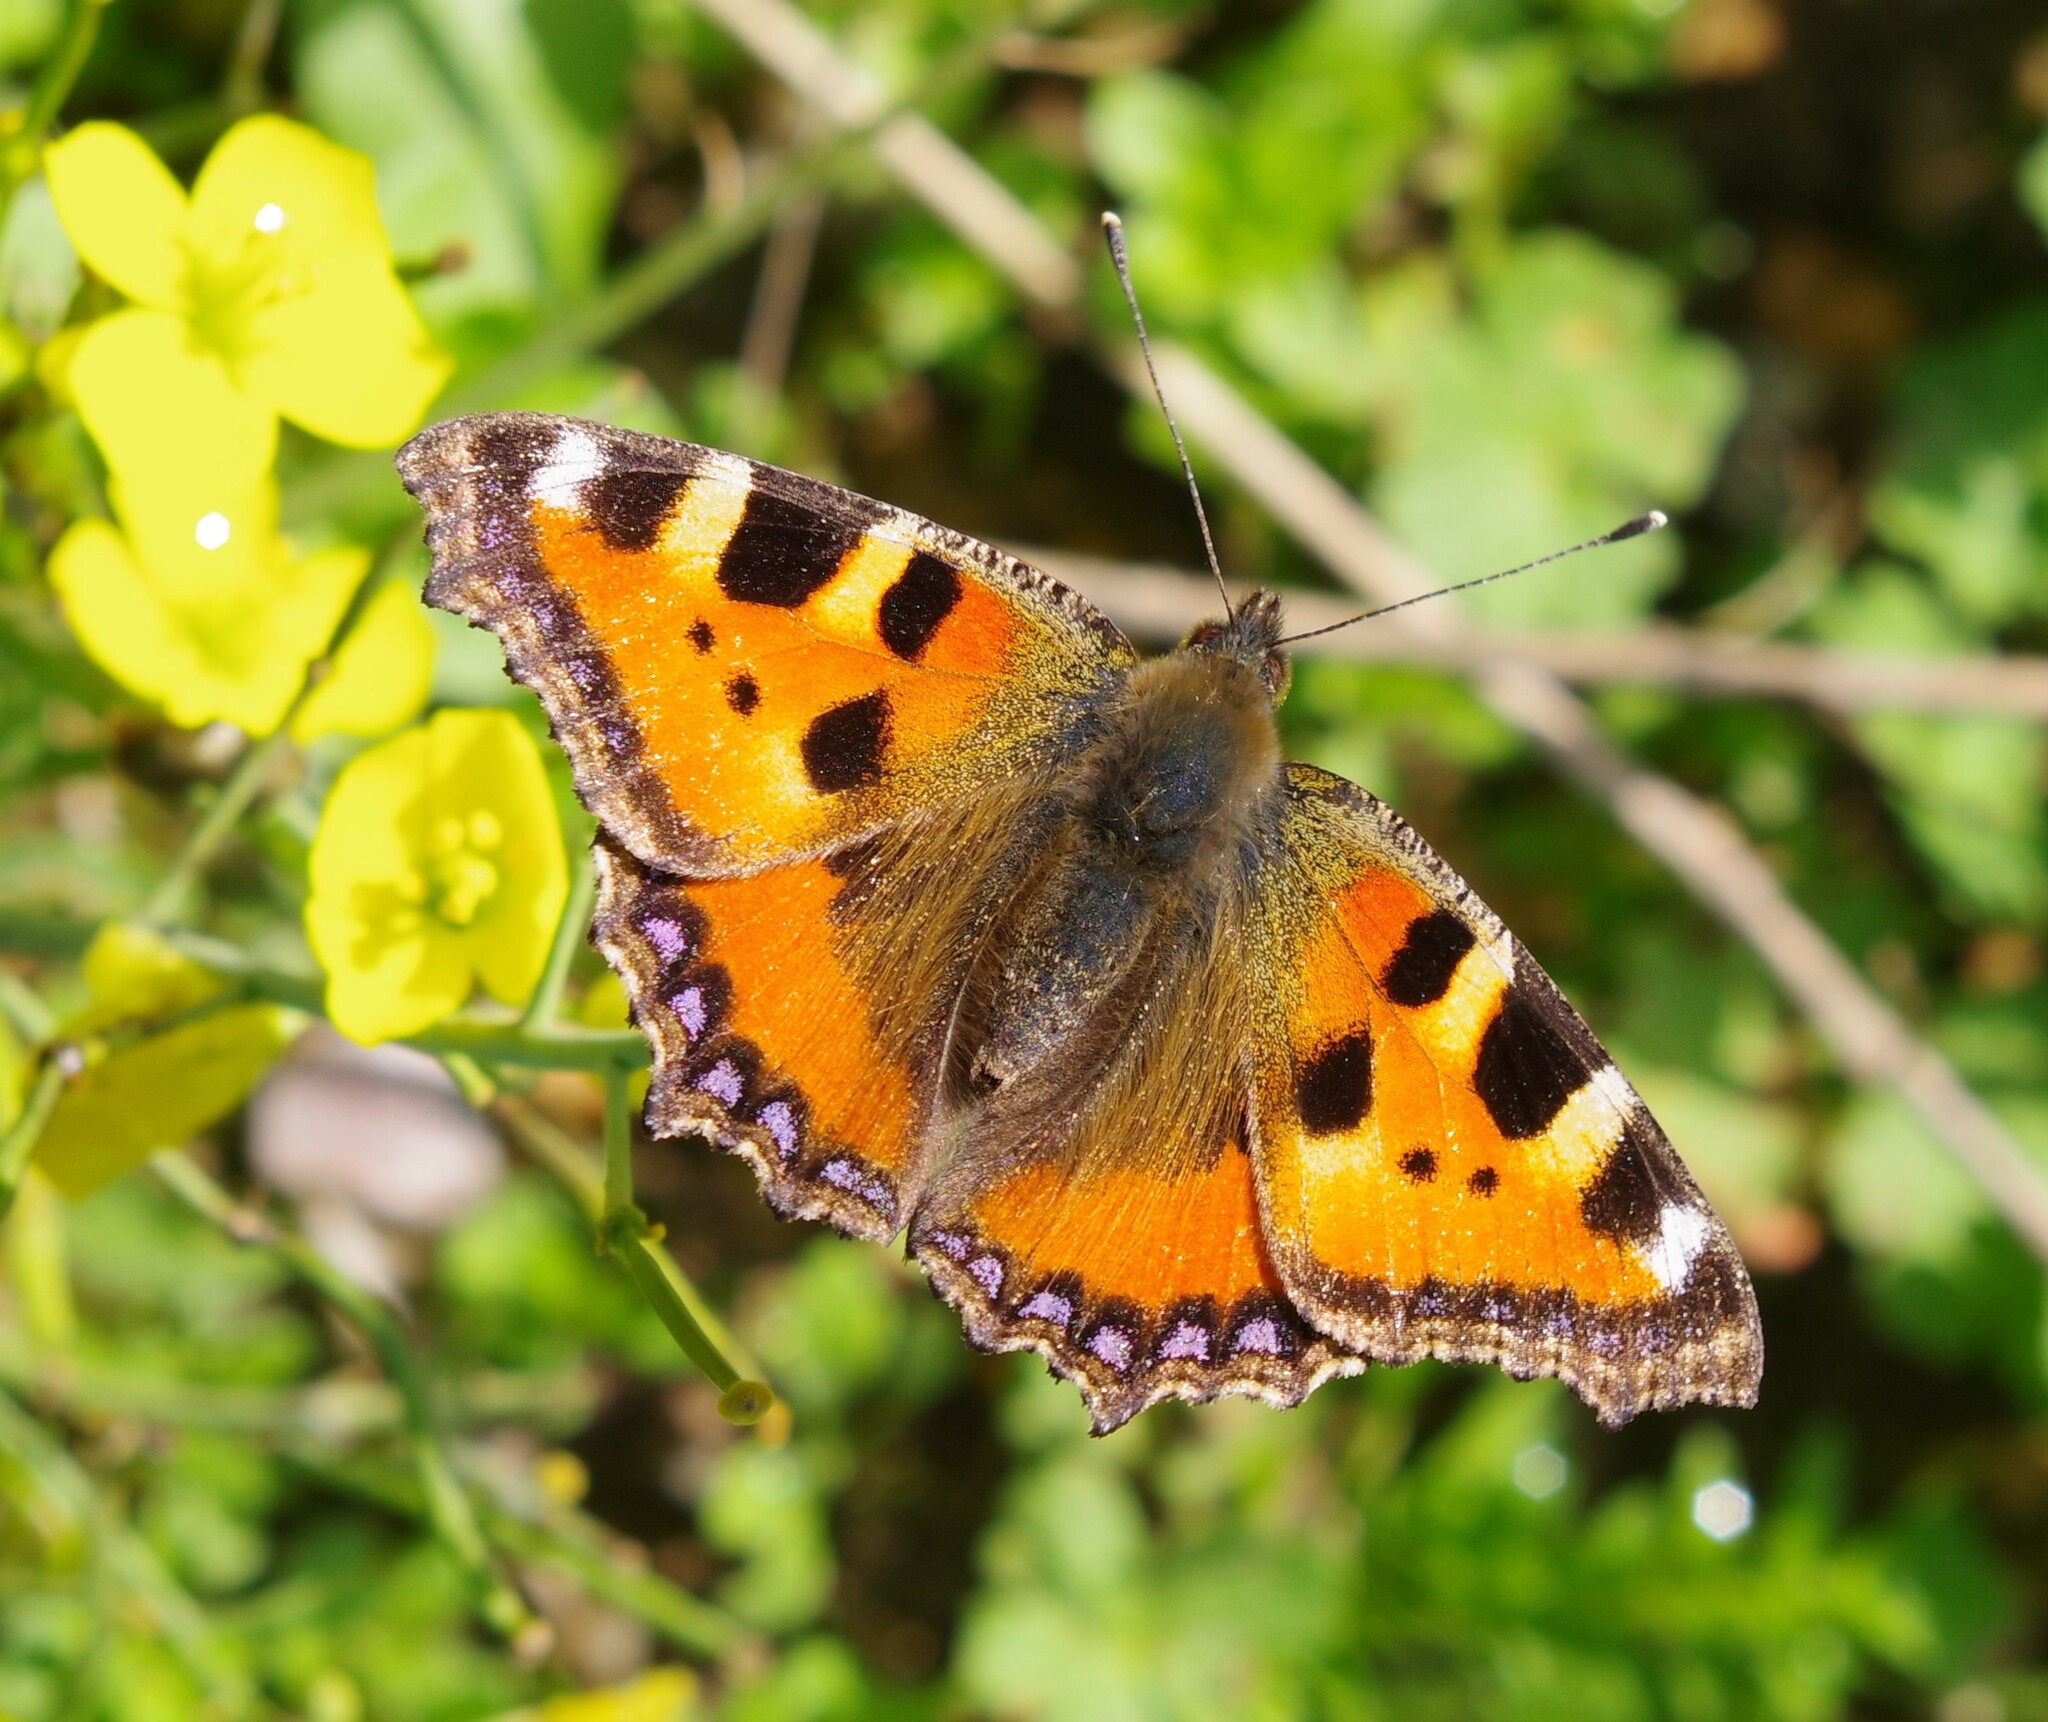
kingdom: Animalia
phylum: Arthropoda
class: Insecta
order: Lepidoptera
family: Nymphalidae
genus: Aglais
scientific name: Aglais urticae
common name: Small tortoiseshell
